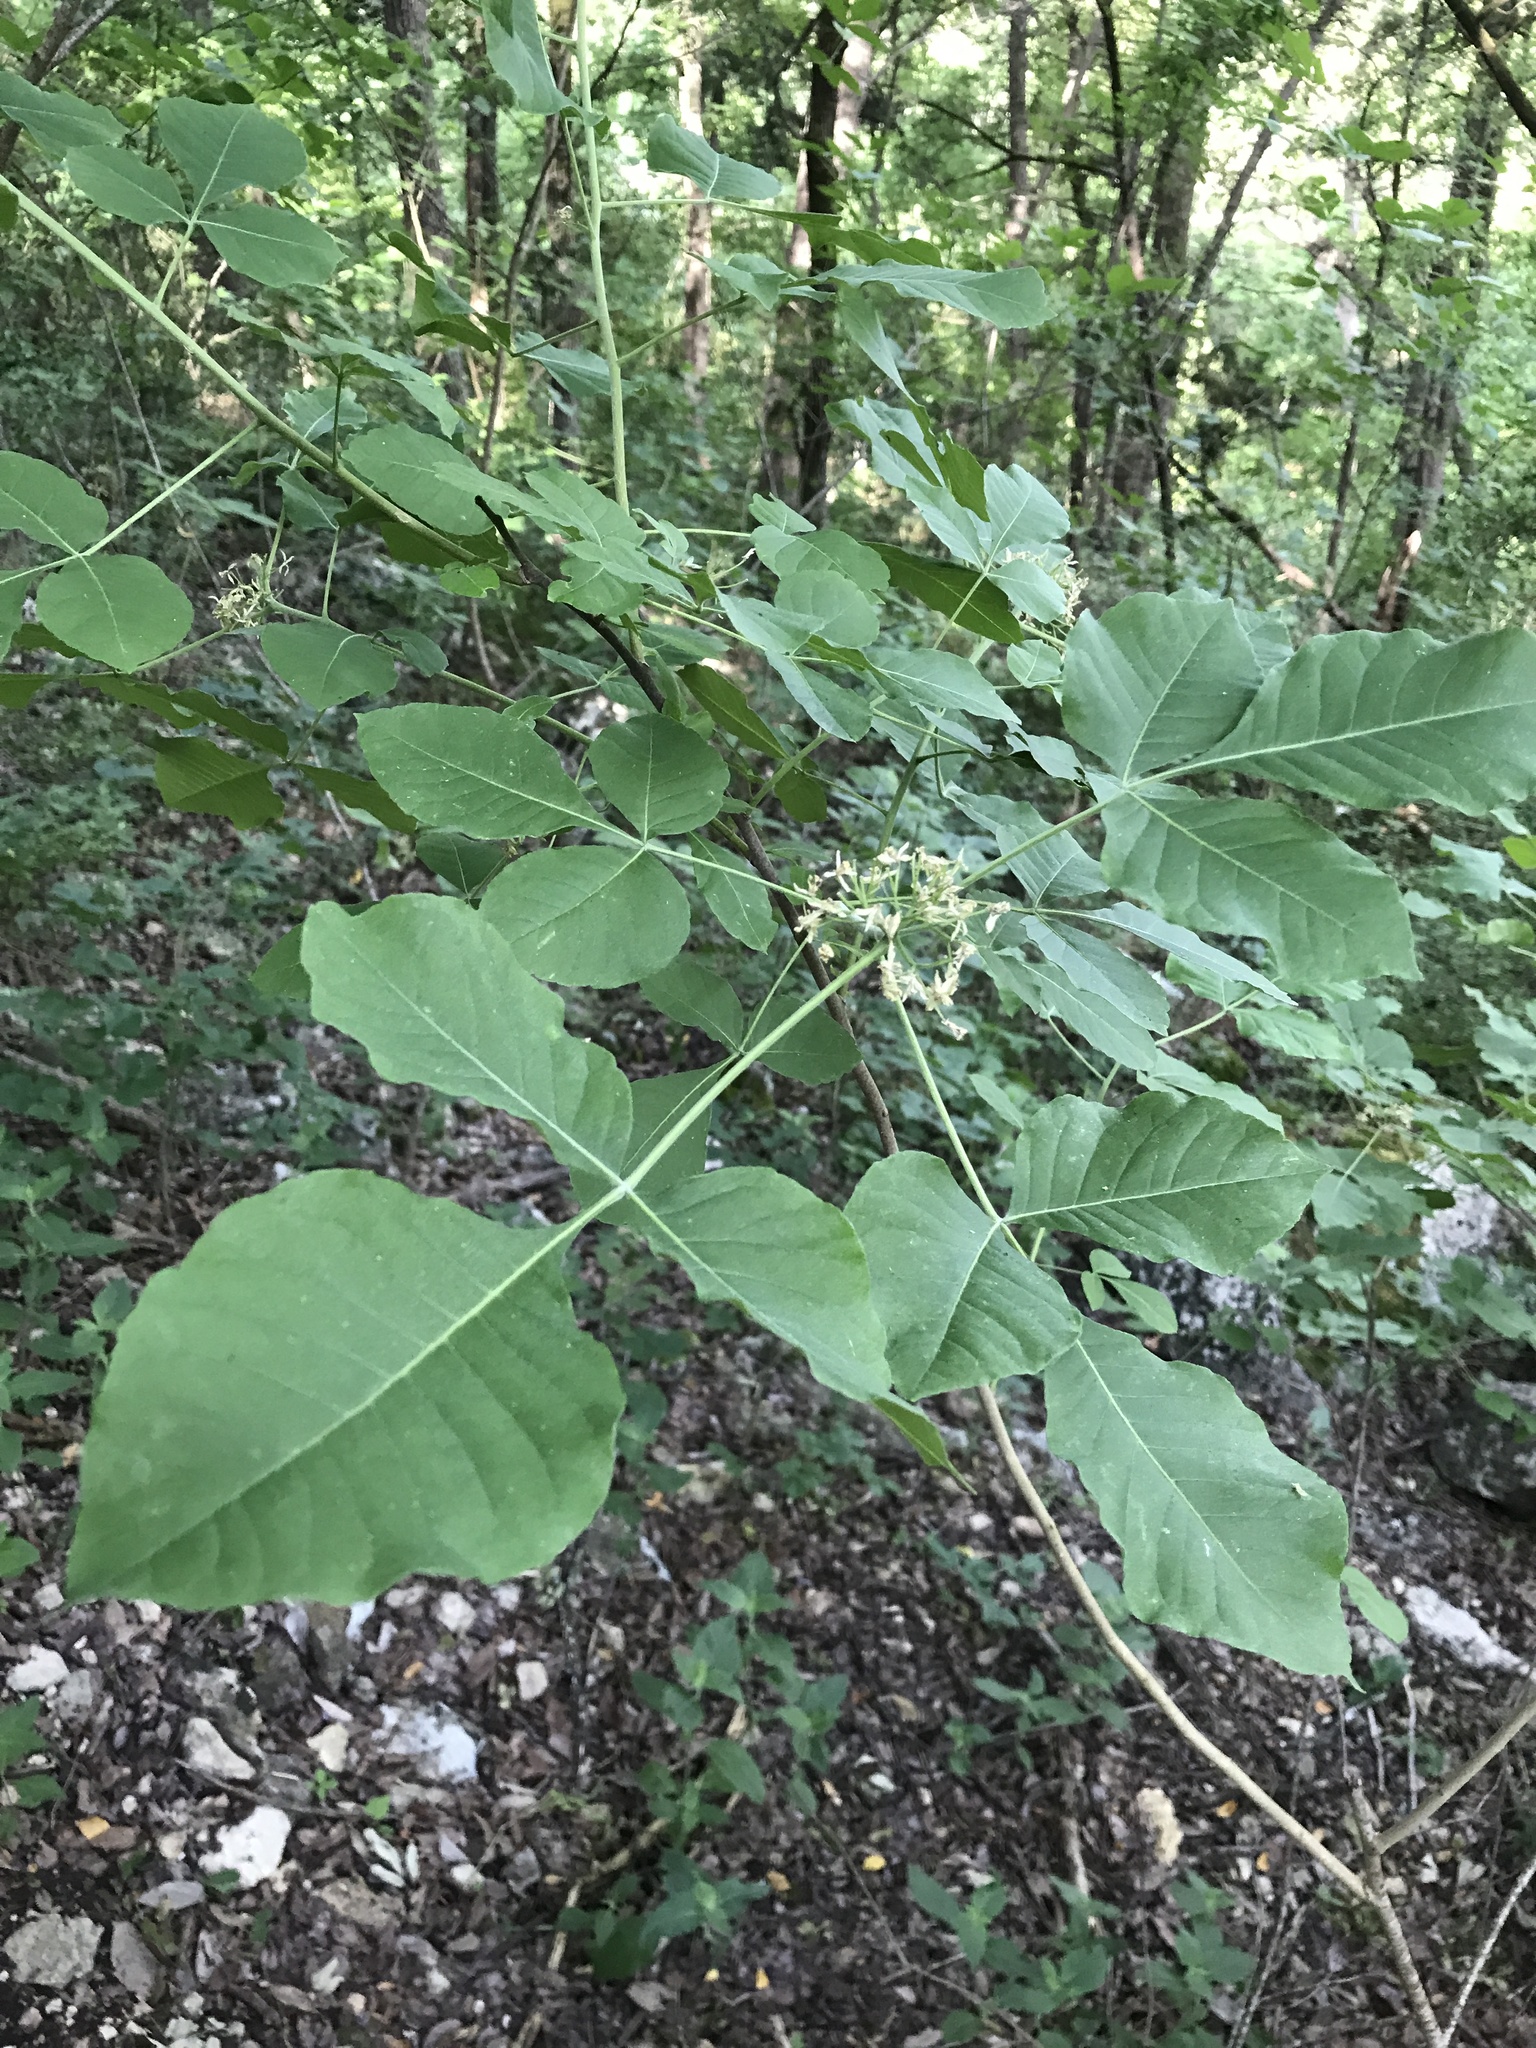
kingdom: Plantae
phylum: Tracheophyta
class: Magnoliopsida
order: Sapindales
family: Rutaceae
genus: Ptelea
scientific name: Ptelea trifoliata
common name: Common hop-tree
